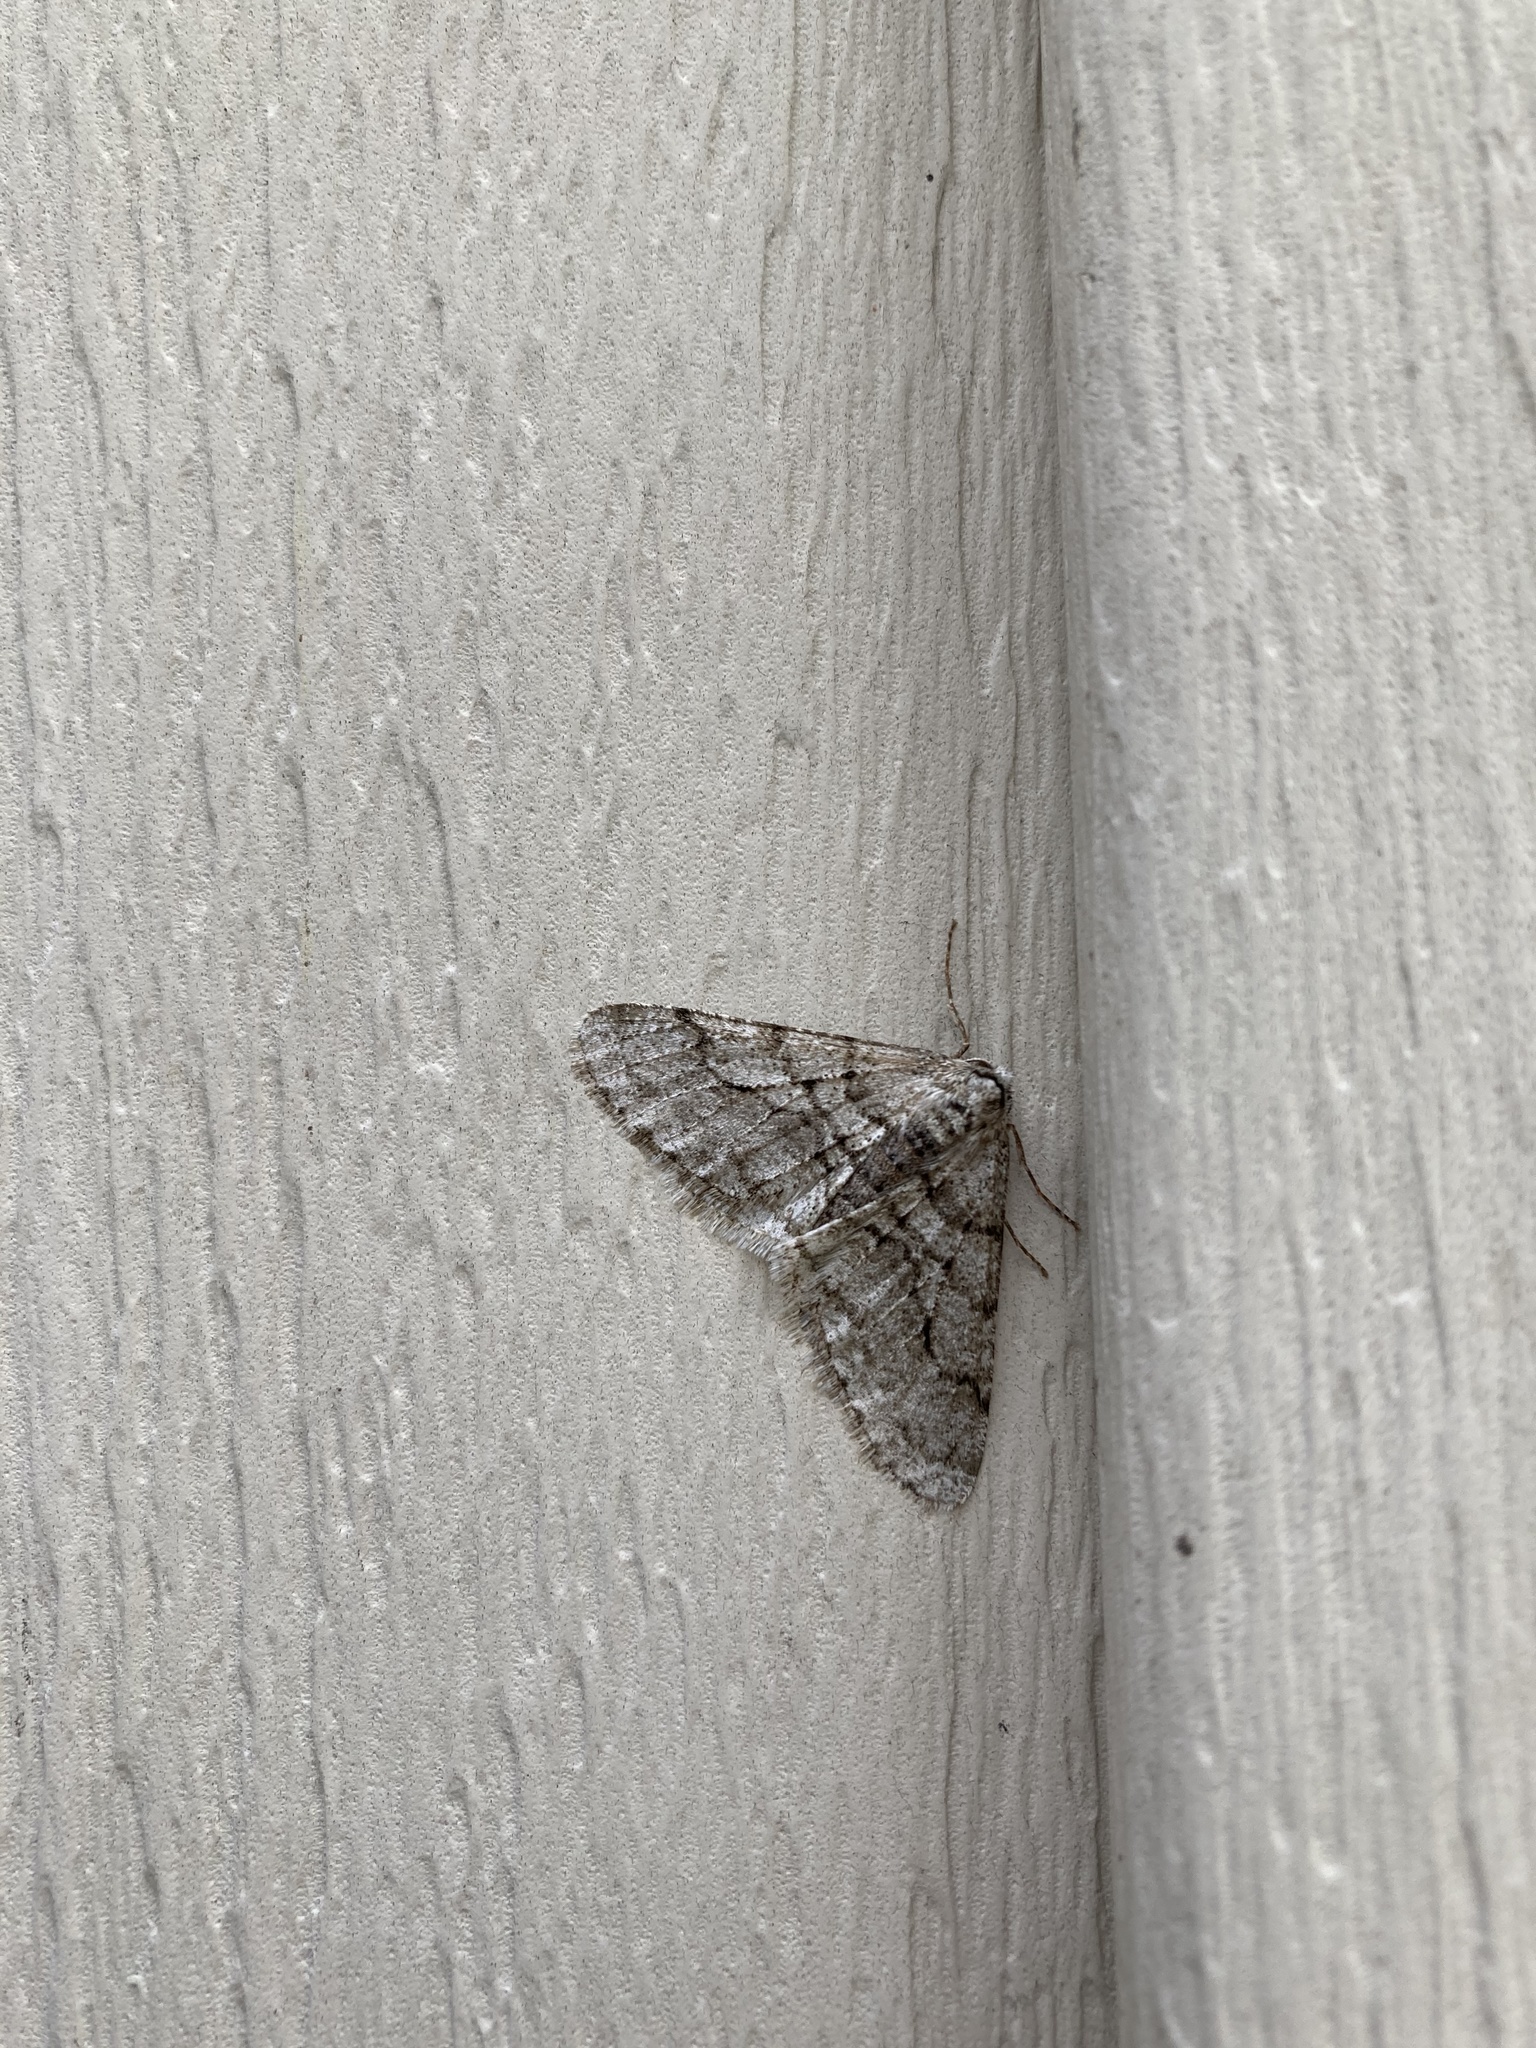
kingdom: Animalia
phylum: Arthropoda
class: Insecta
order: Lepidoptera
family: Geometridae
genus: Phigalia
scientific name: Phigalia titea
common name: Spiny looper
